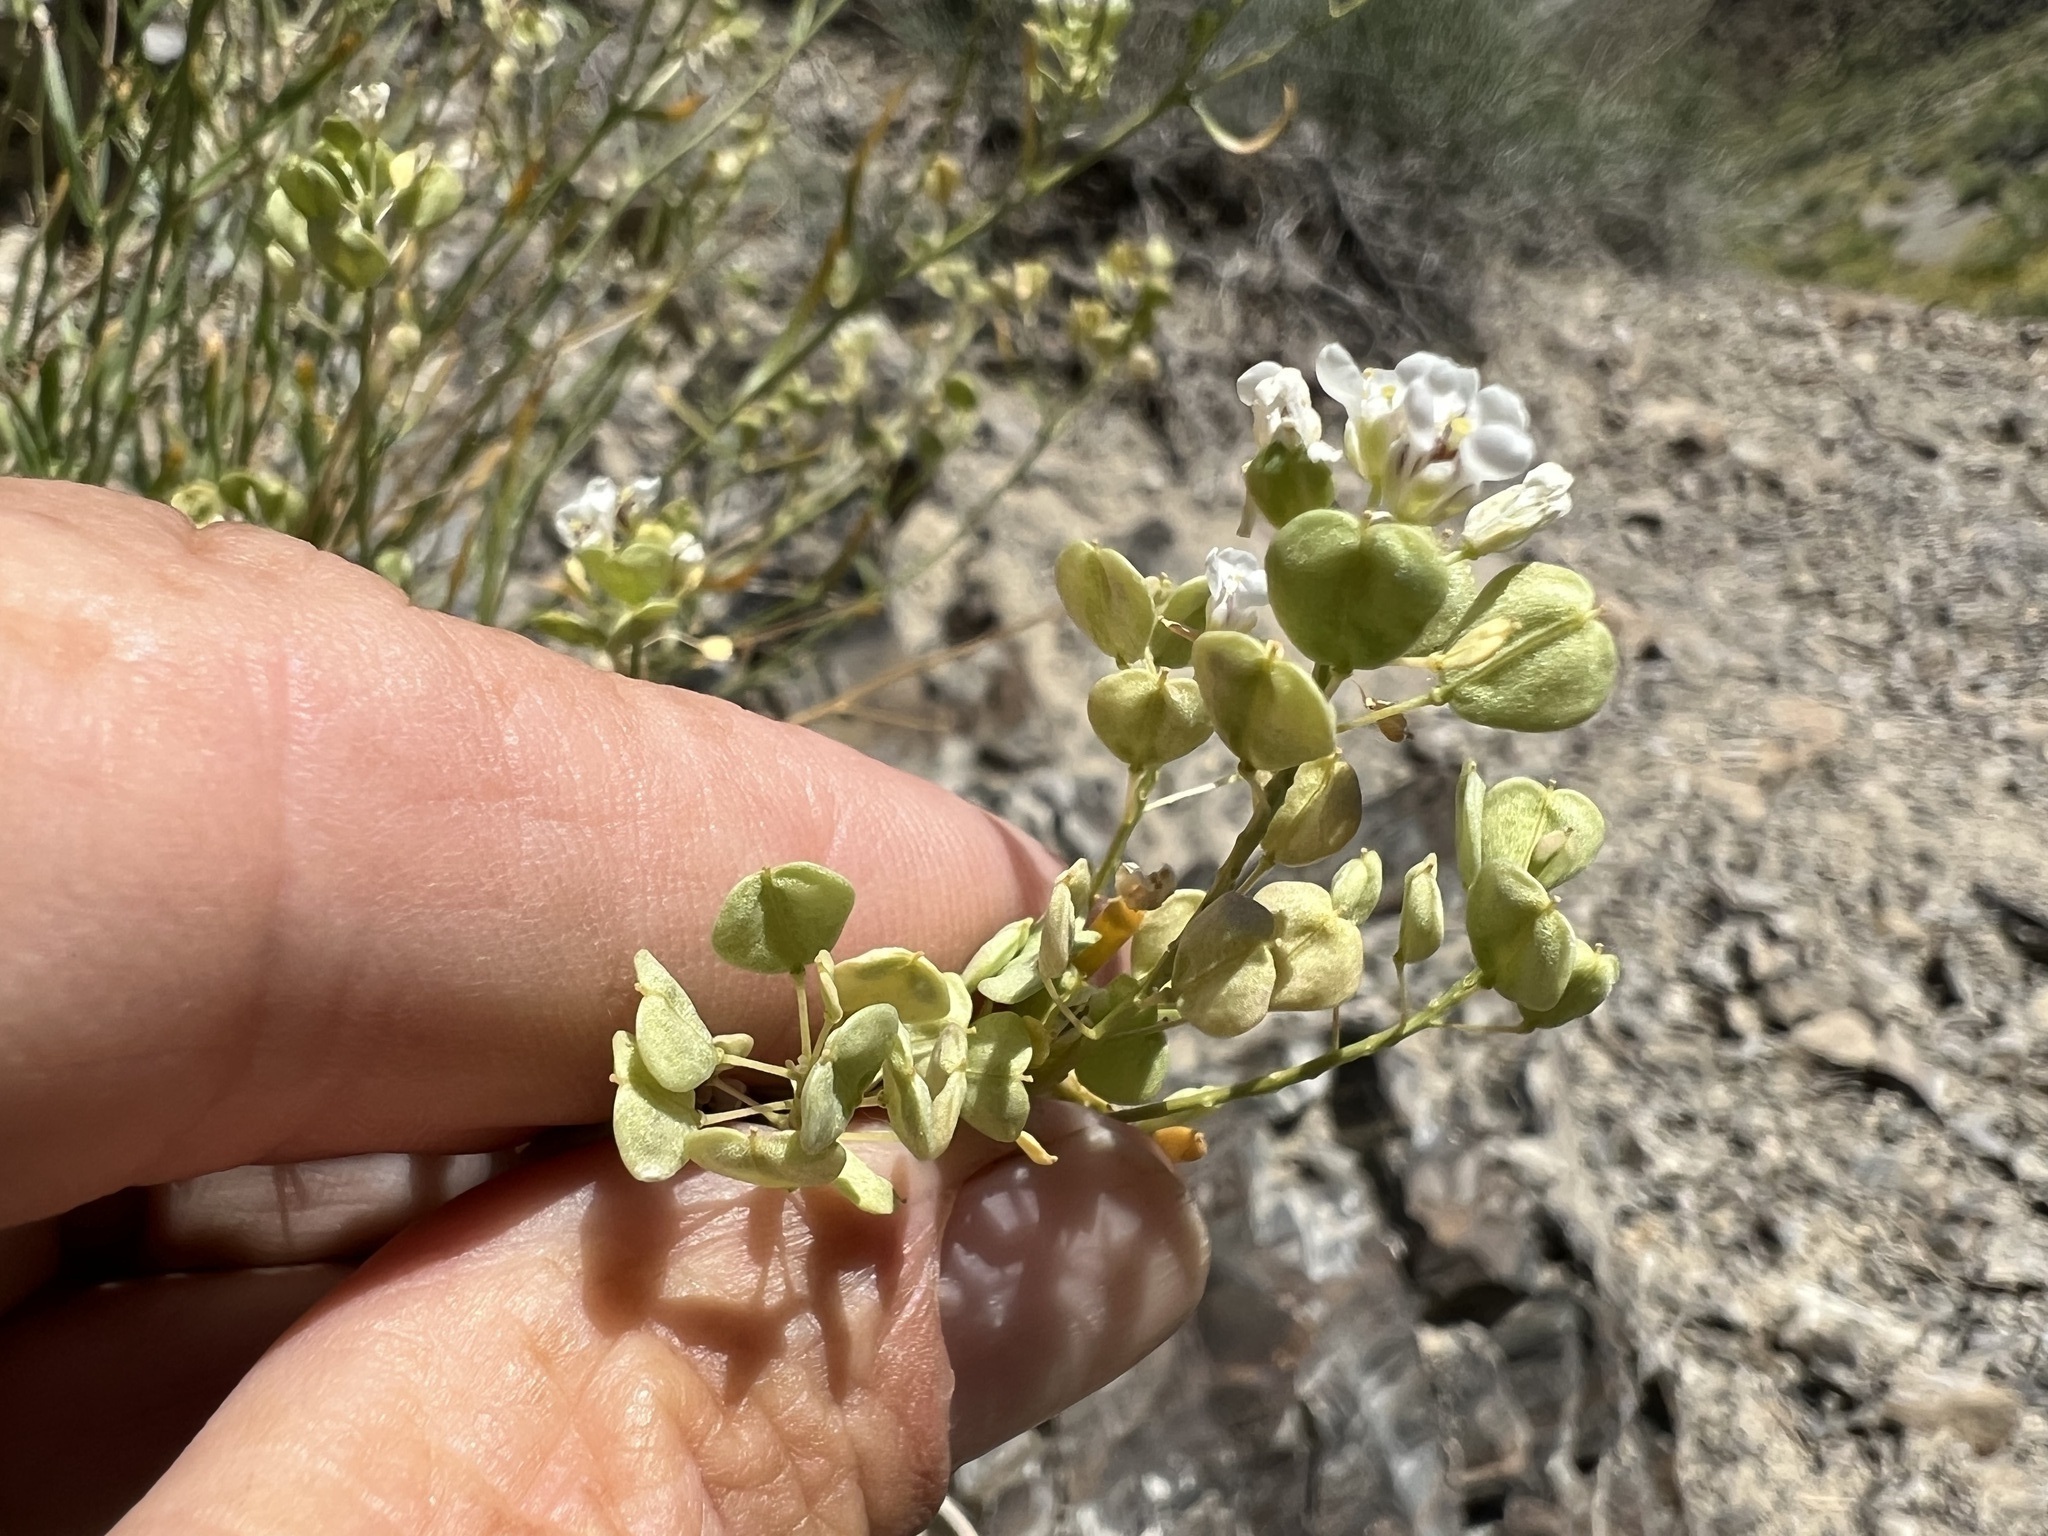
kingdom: Plantae
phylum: Tracheophyta
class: Magnoliopsida
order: Brassicales
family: Brassicaceae
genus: Lepidium
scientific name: Lepidium fremontii
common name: Fremont's pepperwort
